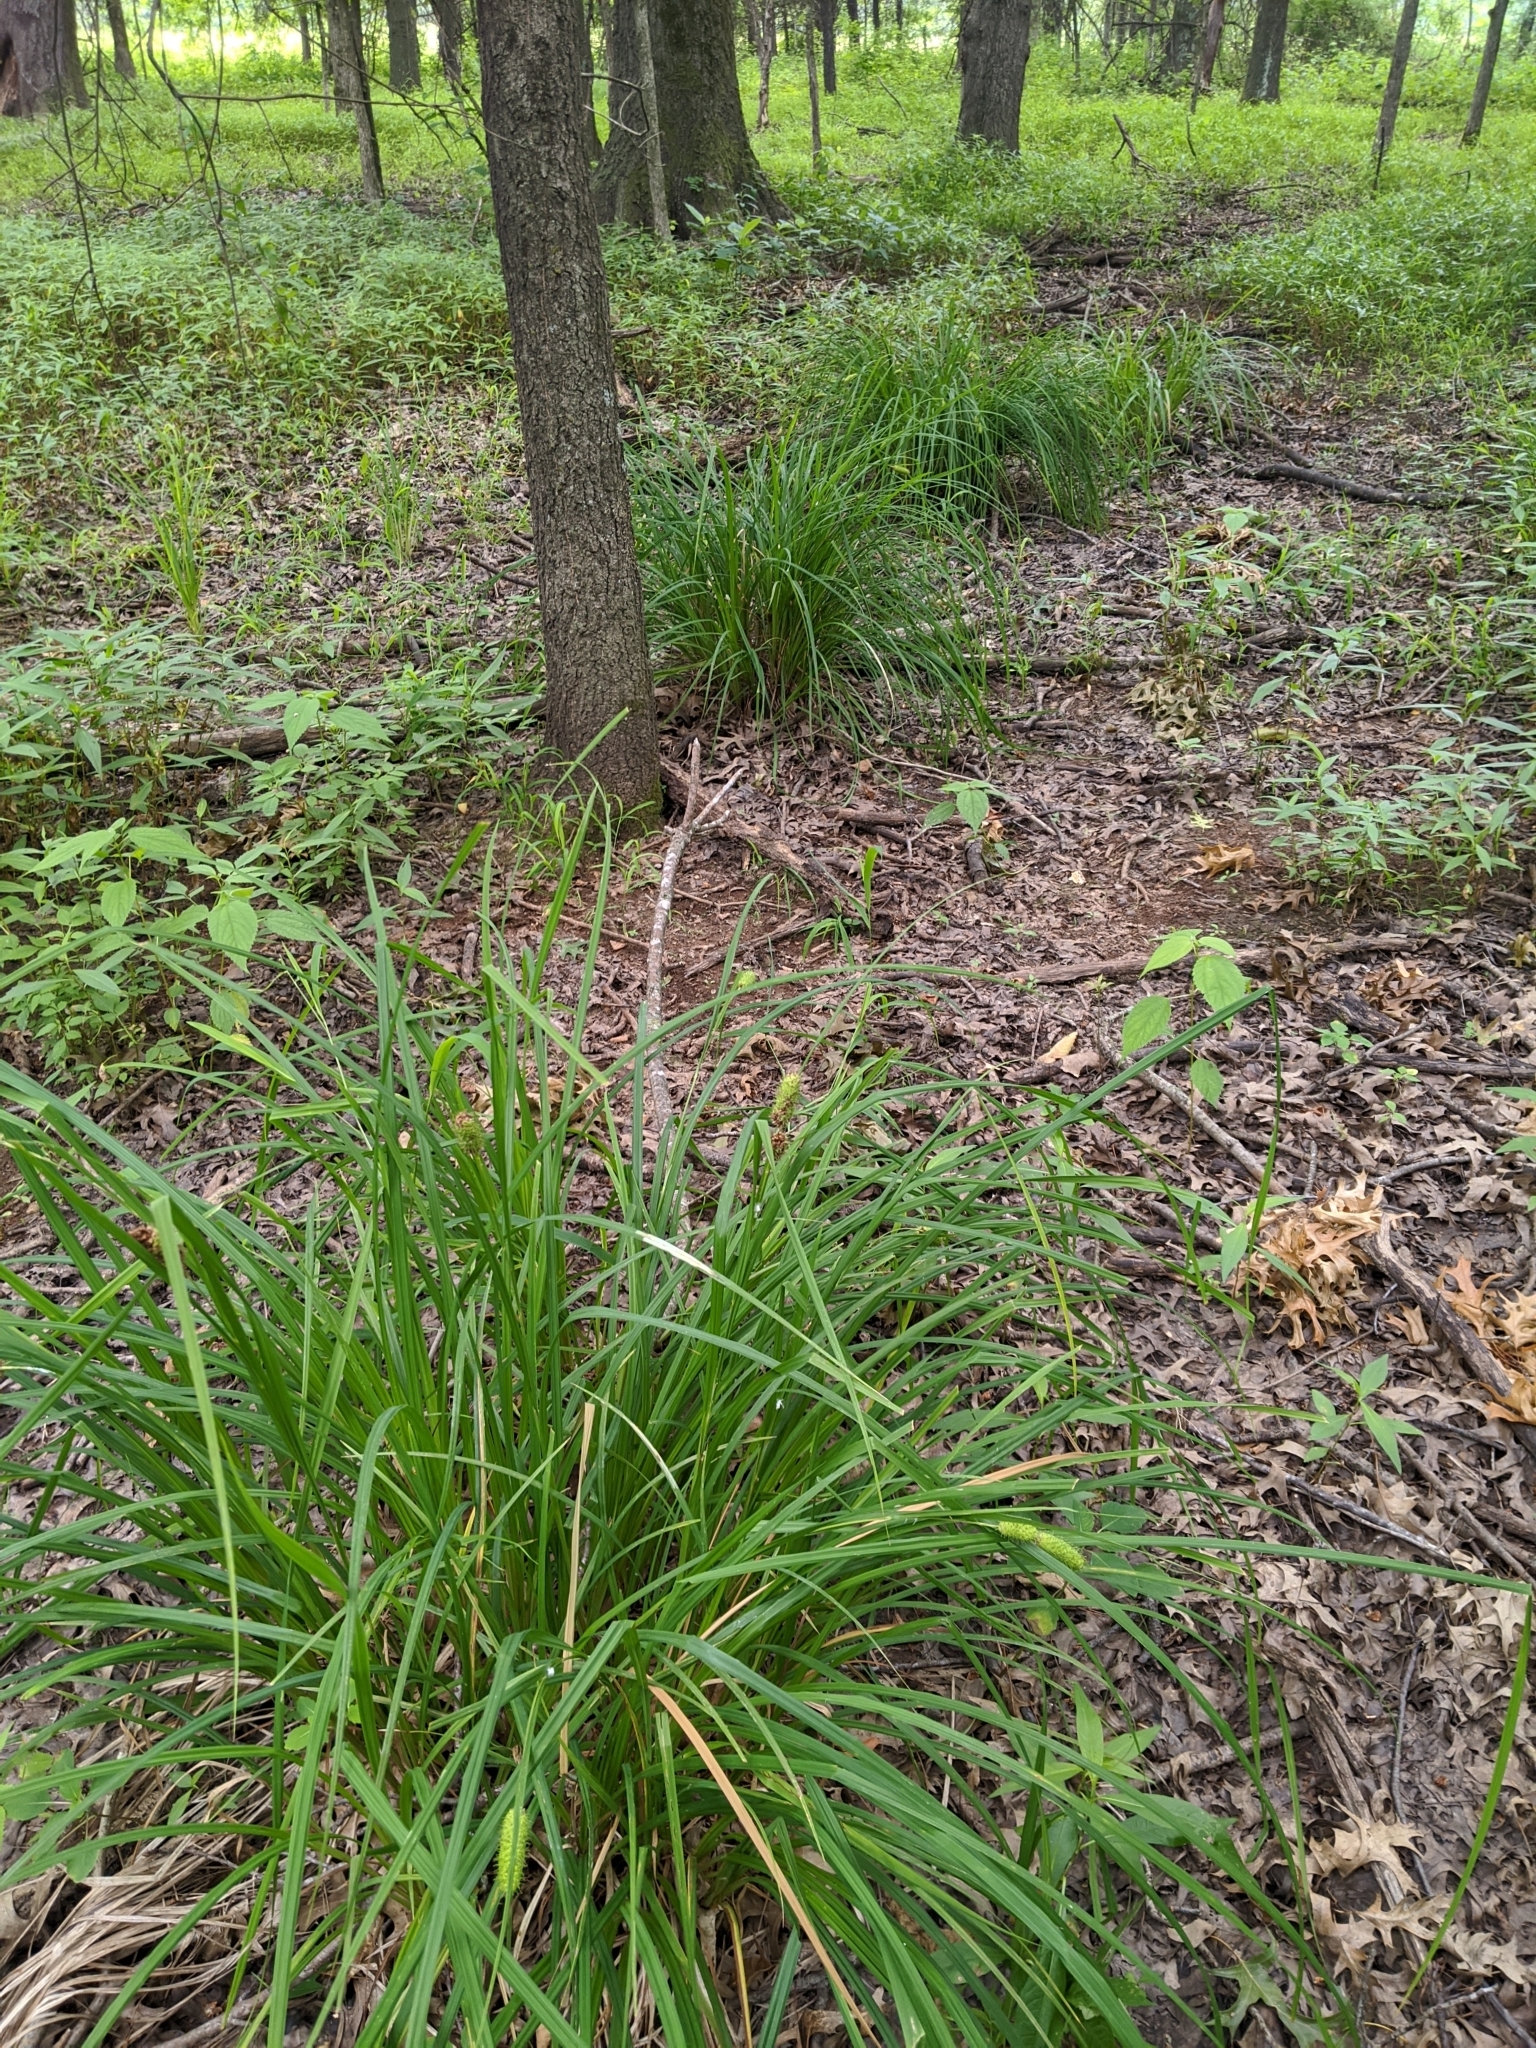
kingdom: Plantae
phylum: Tracheophyta
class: Liliopsida
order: Poales
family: Cyperaceae
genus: Carex
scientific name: Carex typhina
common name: Cattail sedge
